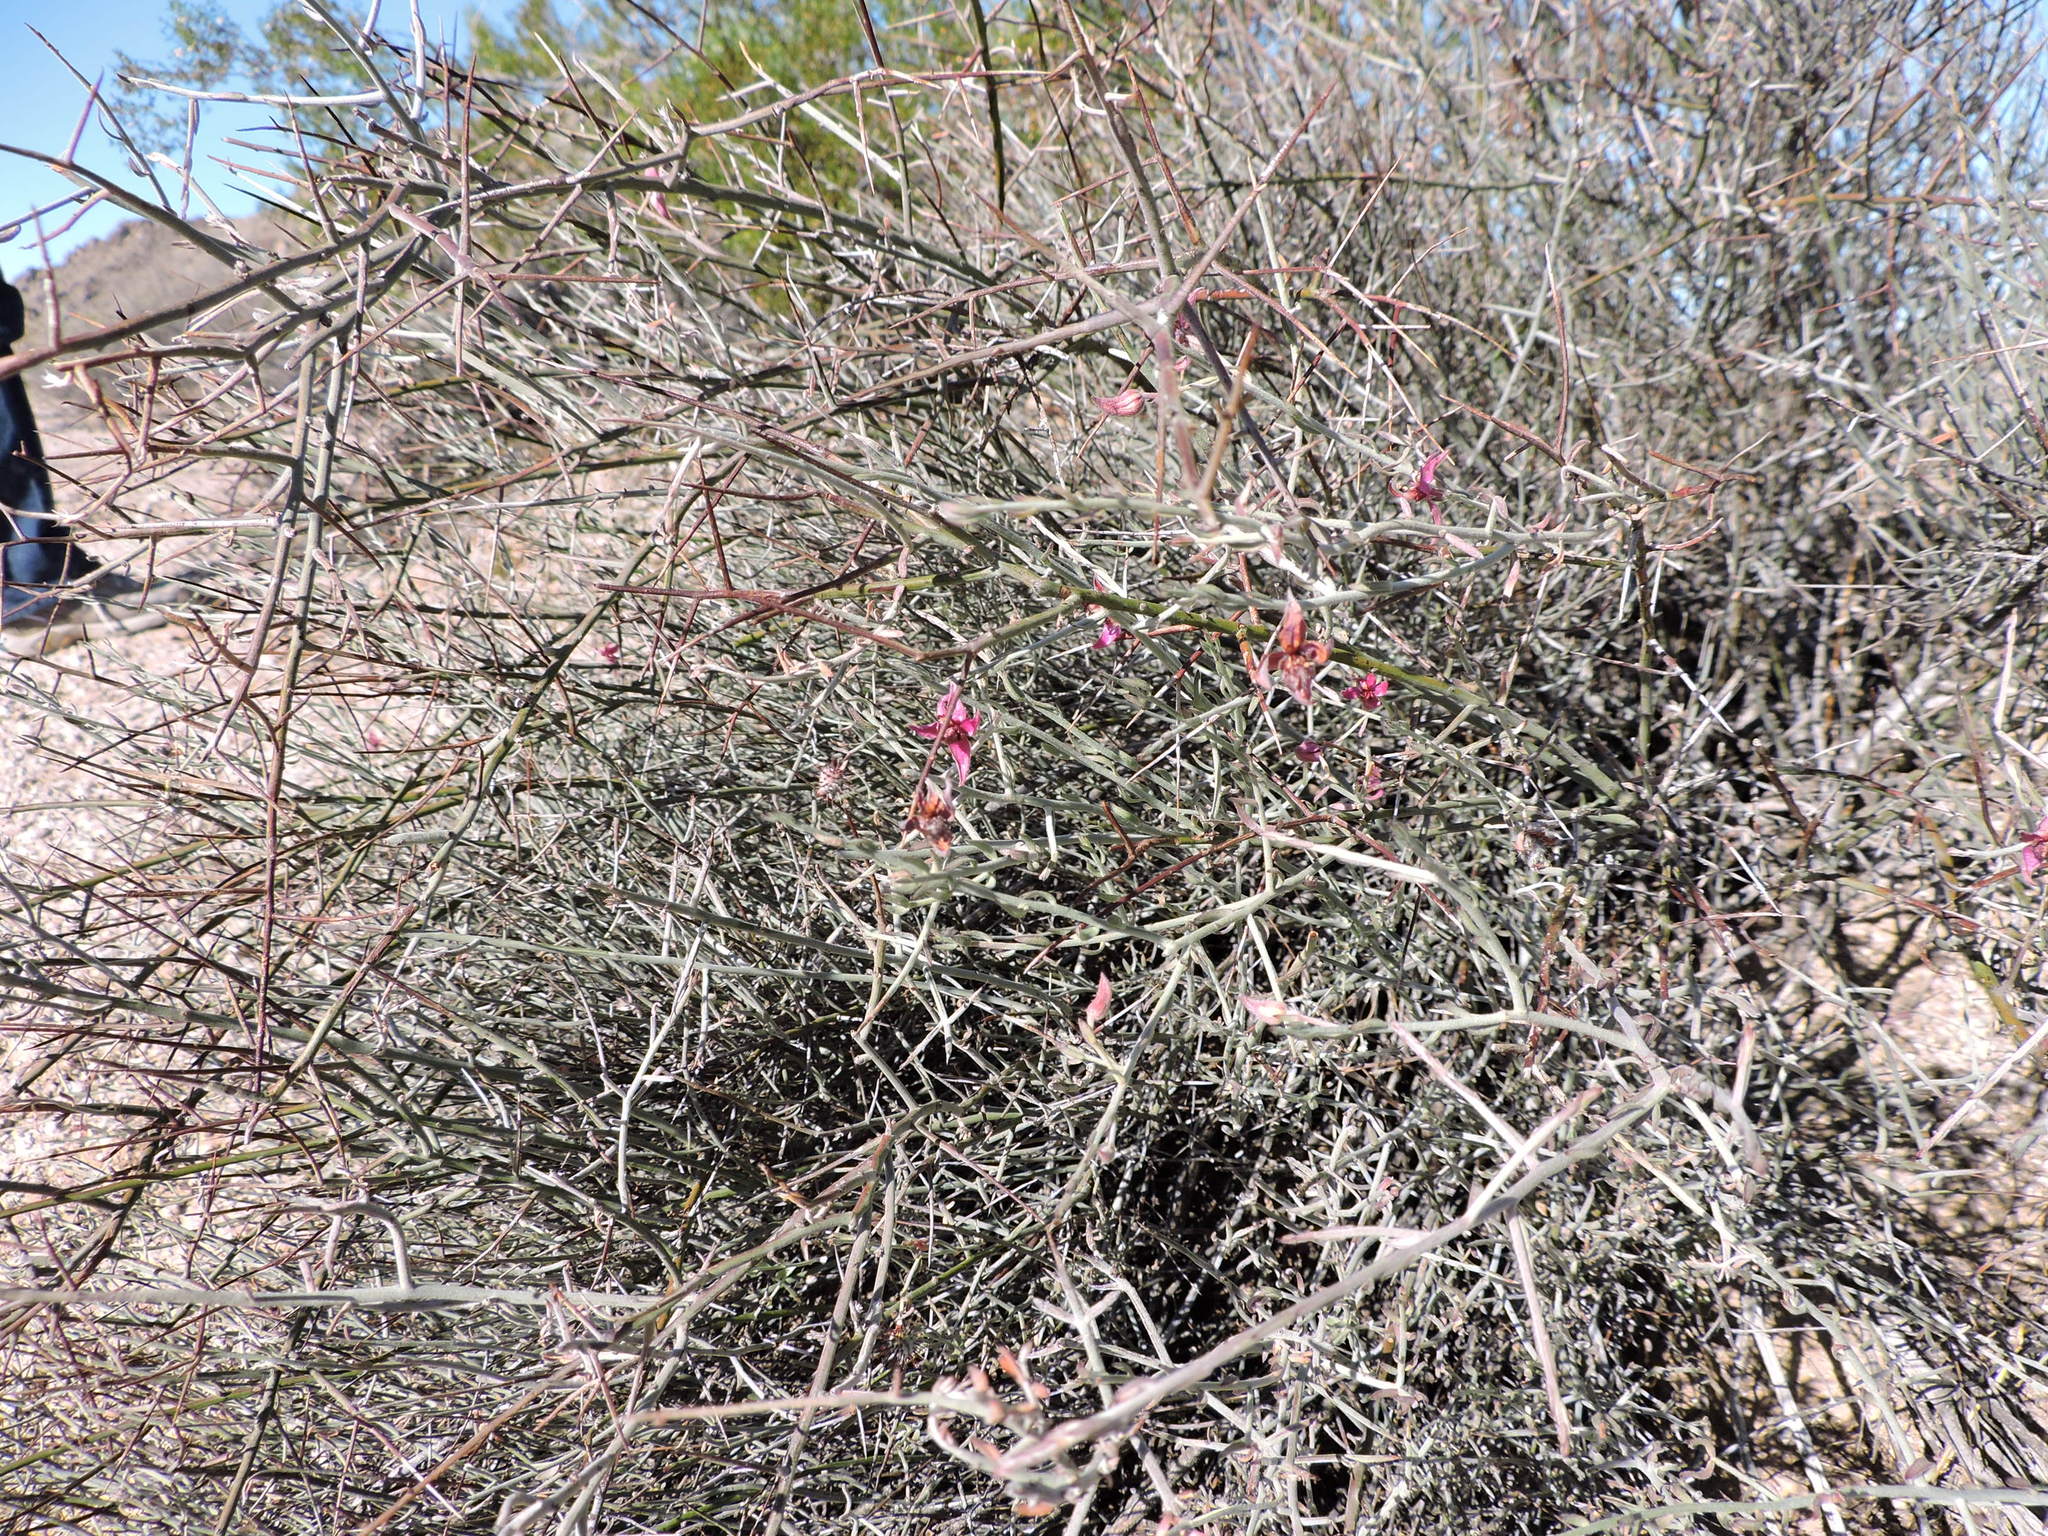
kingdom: Plantae
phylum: Tracheophyta
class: Magnoliopsida
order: Zygophyllales
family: Krameriaceae
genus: Krameria
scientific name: Krameria bicolor
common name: White ratany
